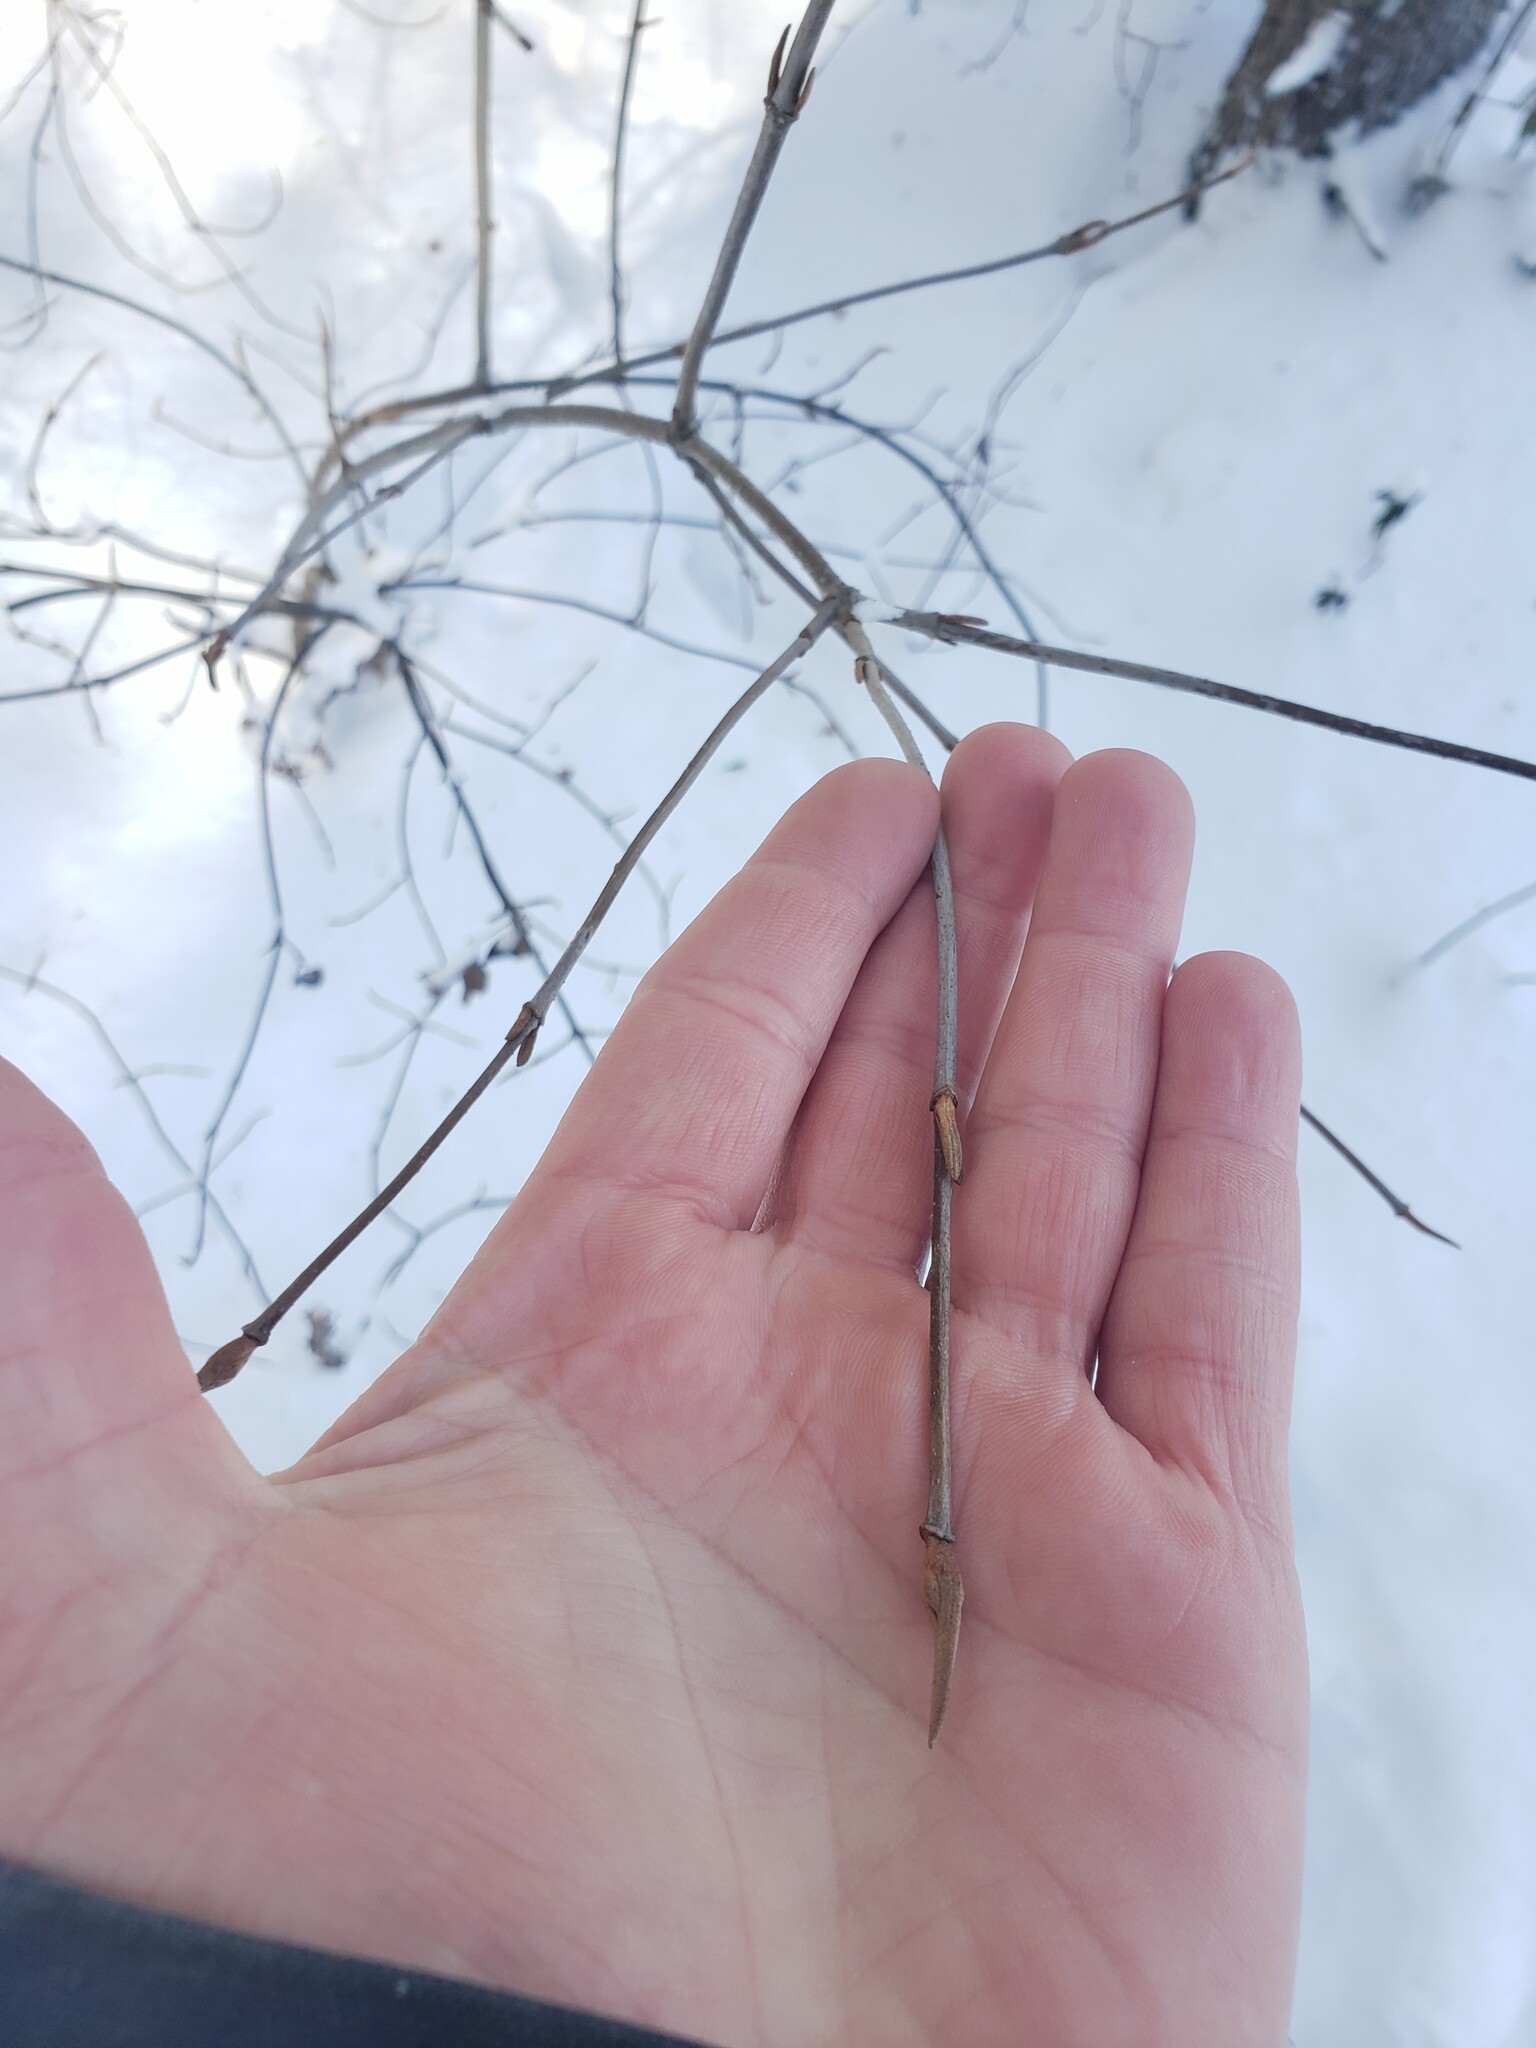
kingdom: Plantae
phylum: Tracheophyta
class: Magnoliopsida
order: Dipsacales
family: Viburnaceae
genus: Viburnum
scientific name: Viburnum cassinoides
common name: Swamp haw
